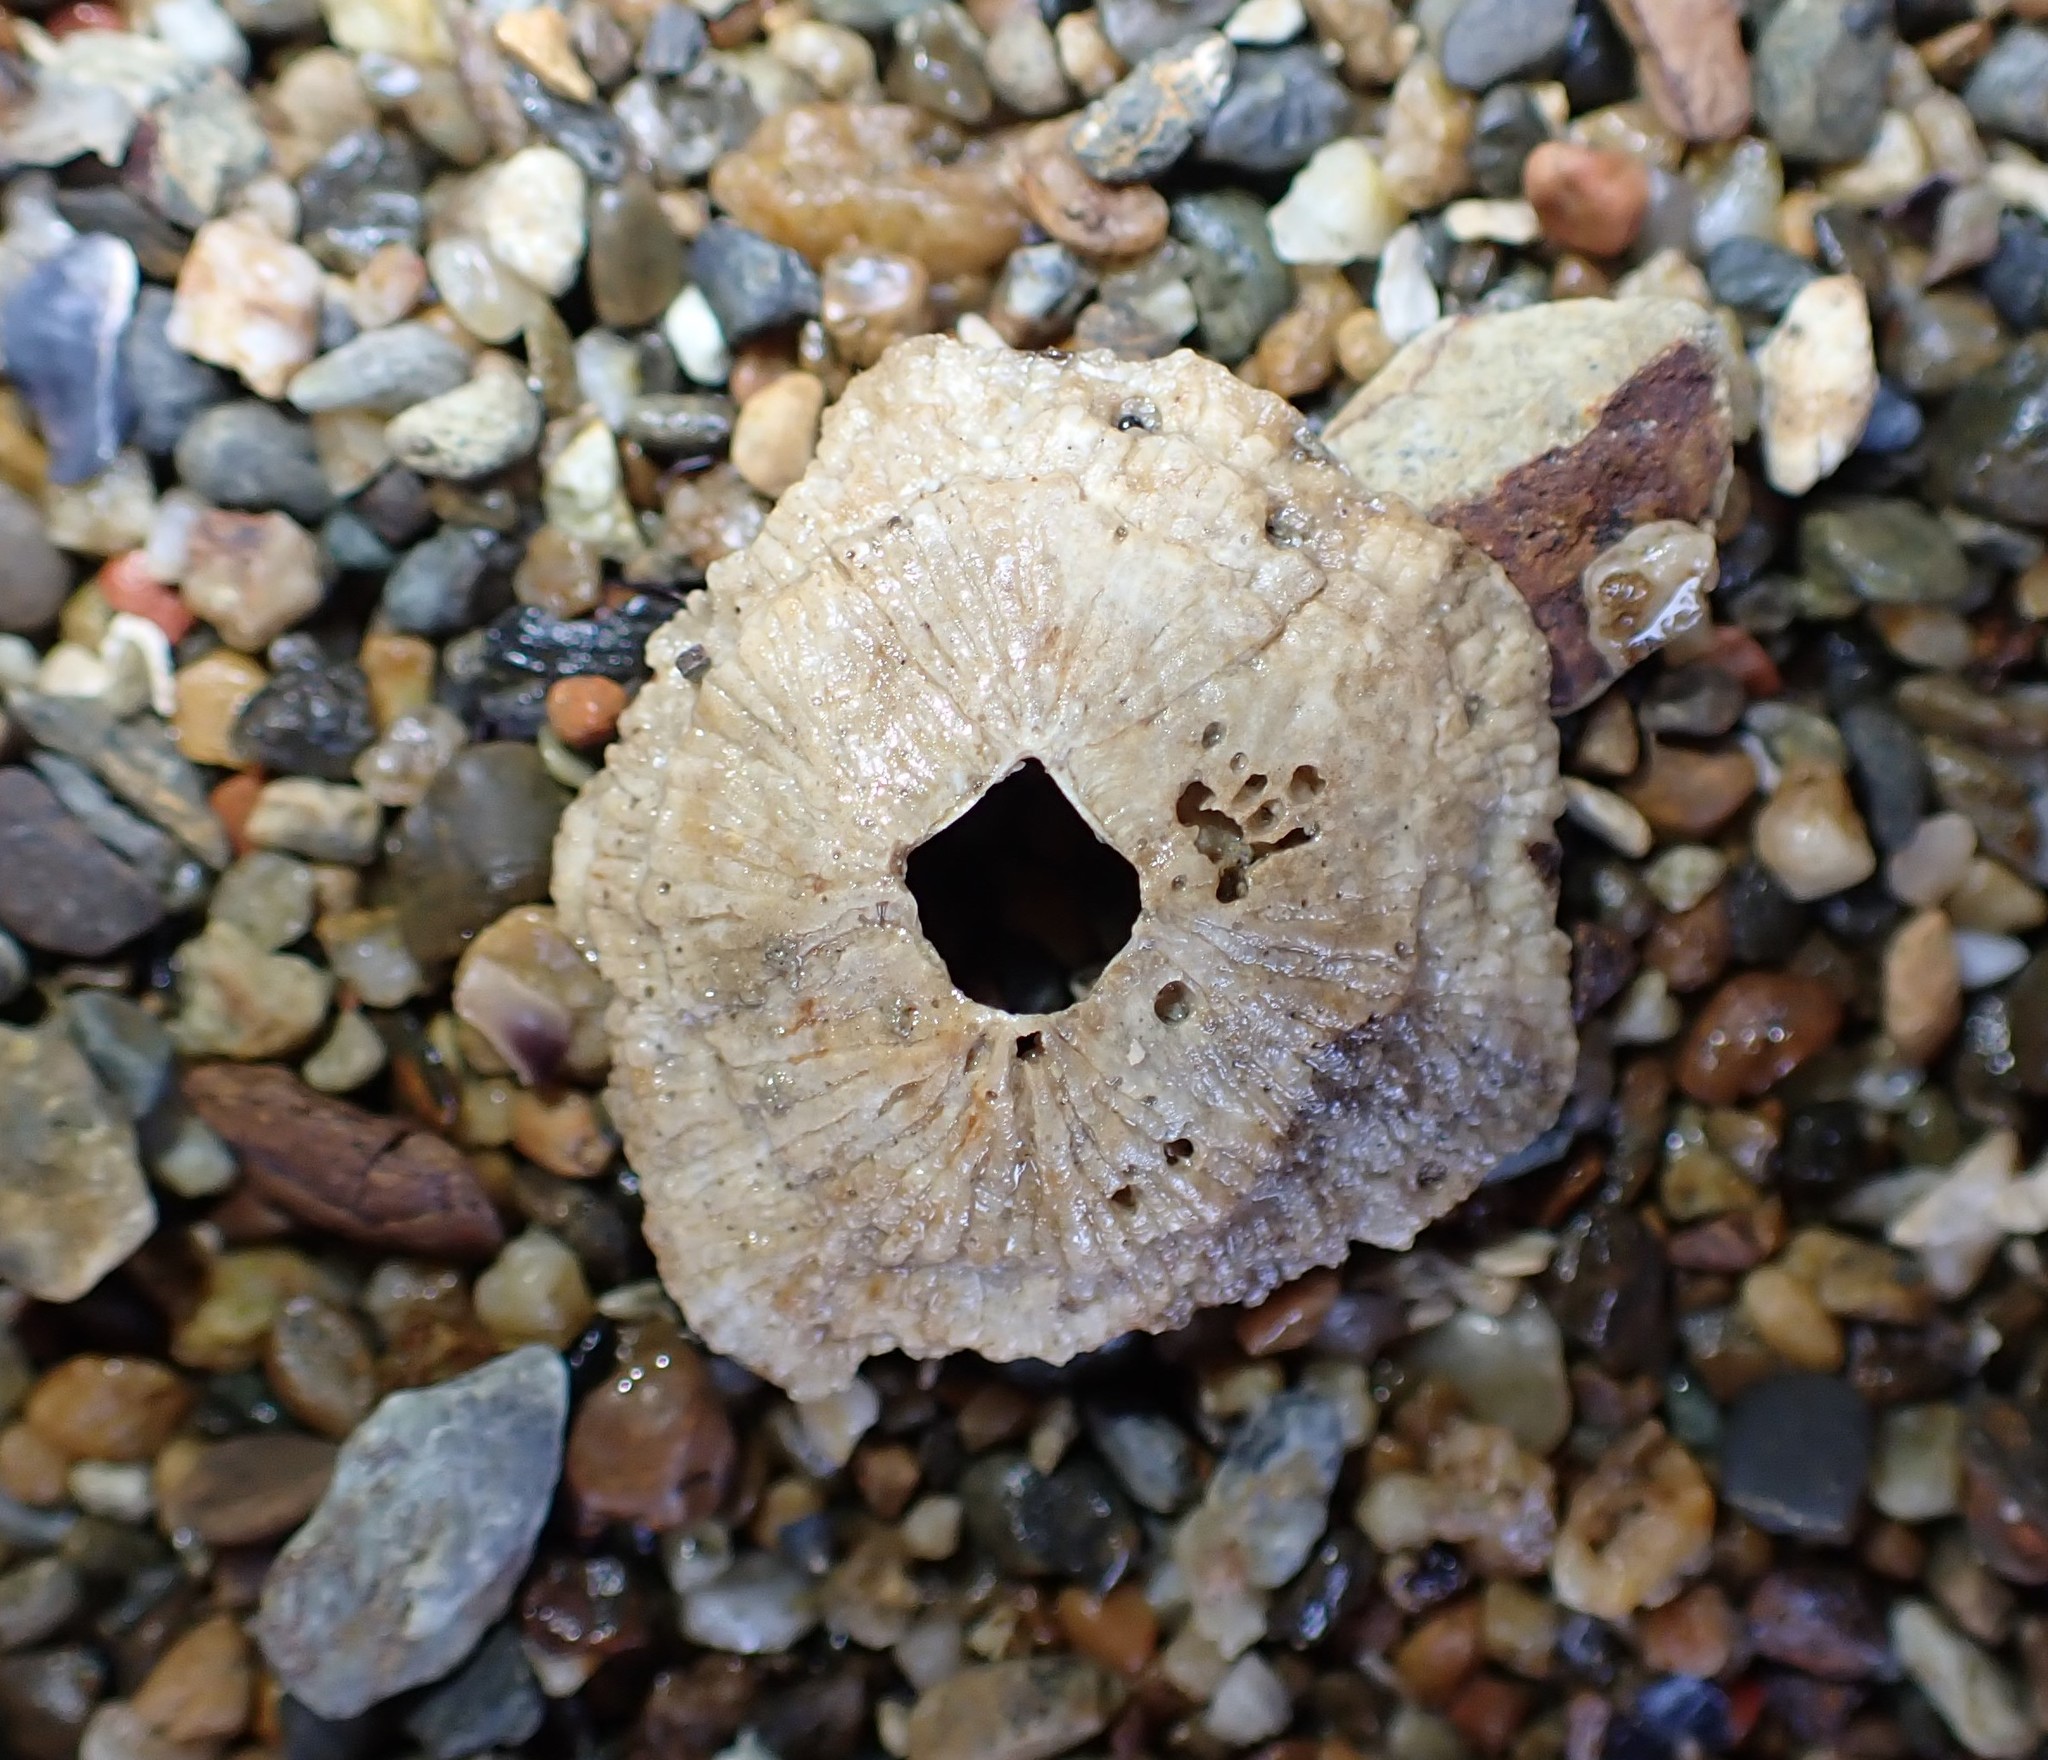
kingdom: Animalia
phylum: Arthropoda
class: Maxillopoda
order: Sessilia
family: Tetraclitidae
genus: Tetraclitella
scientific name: Tetraclitella depressa
